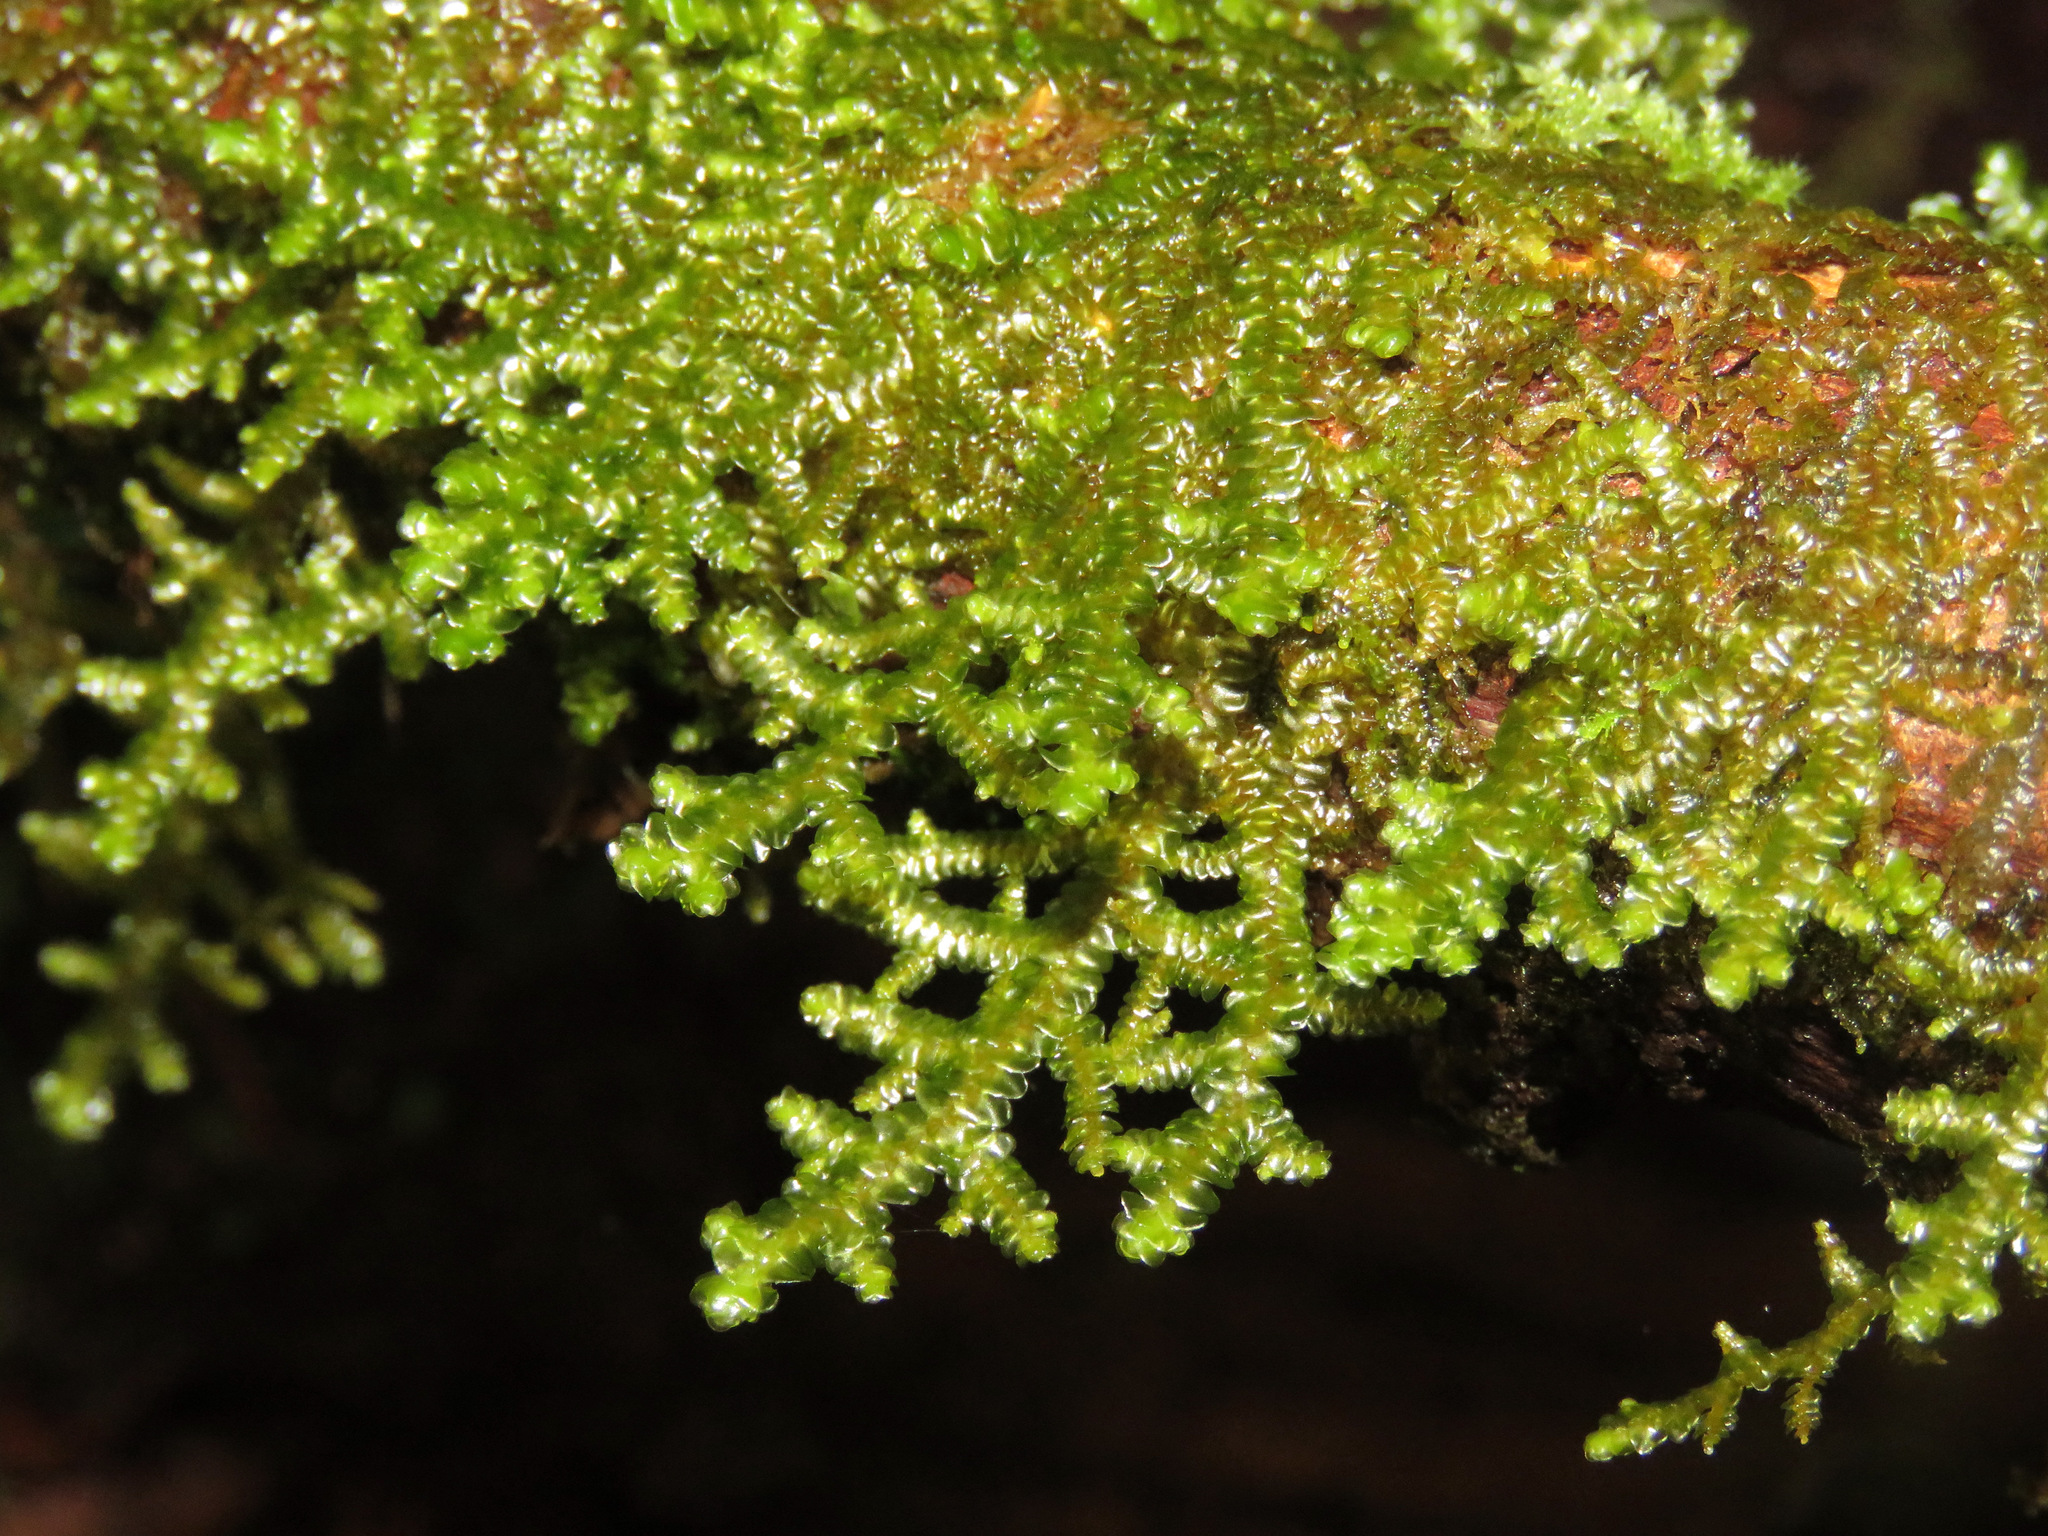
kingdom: Plantae
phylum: Marchantiophyta
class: Jungermanniopsida
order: Porellales
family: Porellaceae
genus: Porella
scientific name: Porella navicularis
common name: Tree ruffle liverwort
